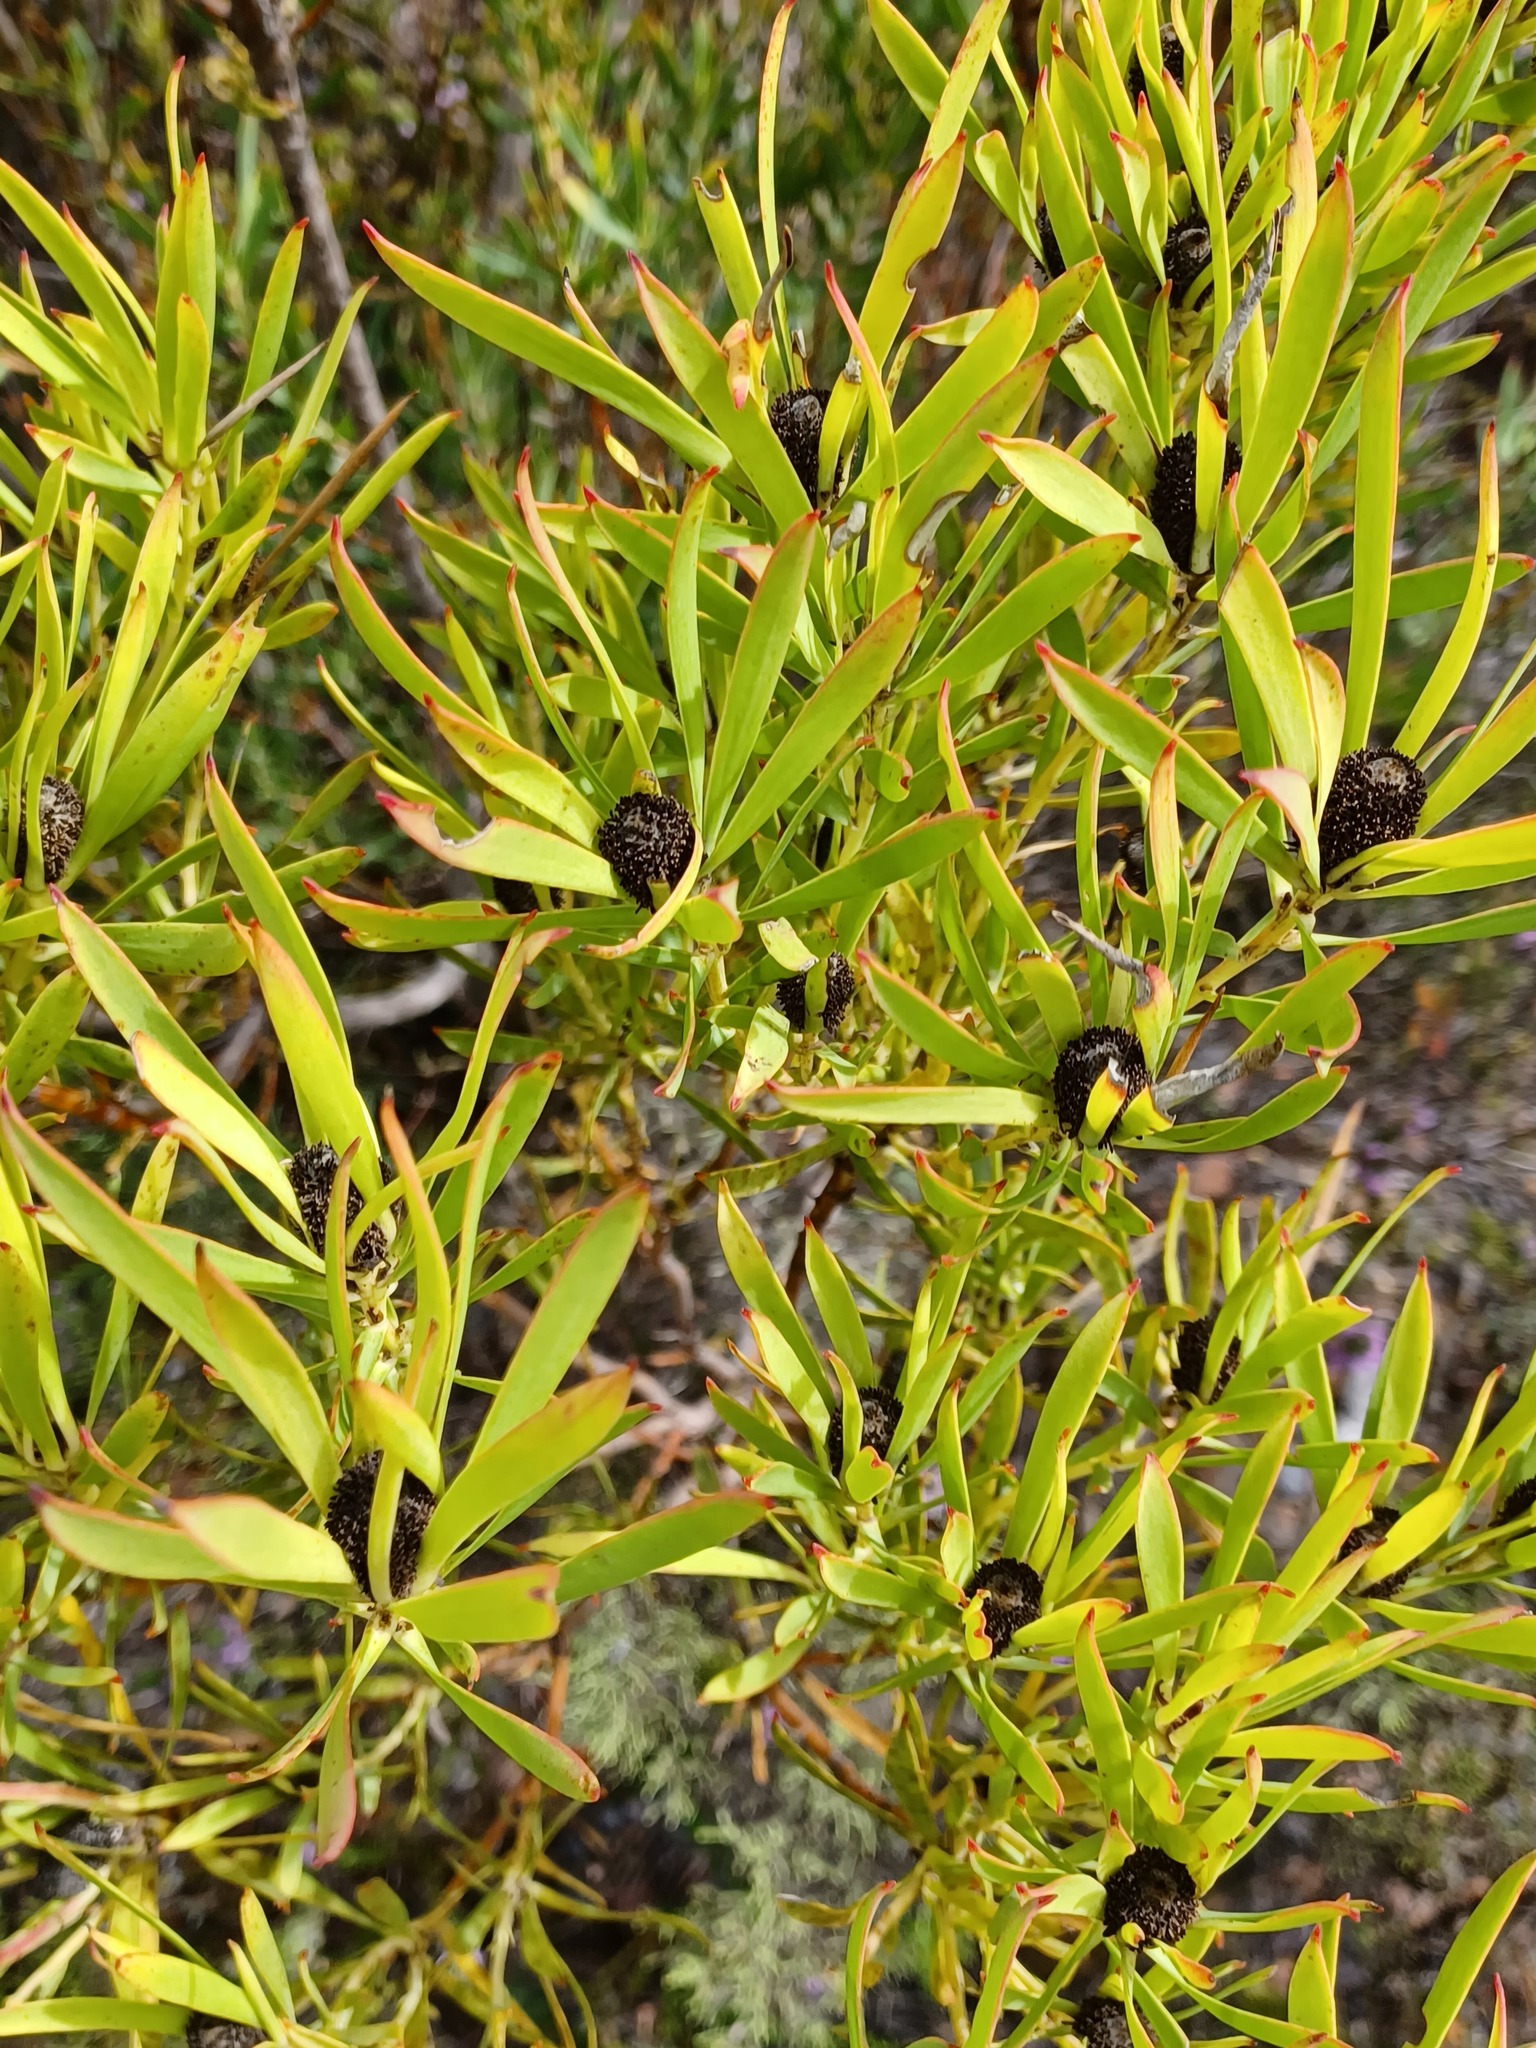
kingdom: Plantae
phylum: Tracheophyta
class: Magnoliopsida
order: Proteales
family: Proteaceae
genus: Leucadendron
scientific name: Leucadendron salignum
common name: Common sunshine conebush
